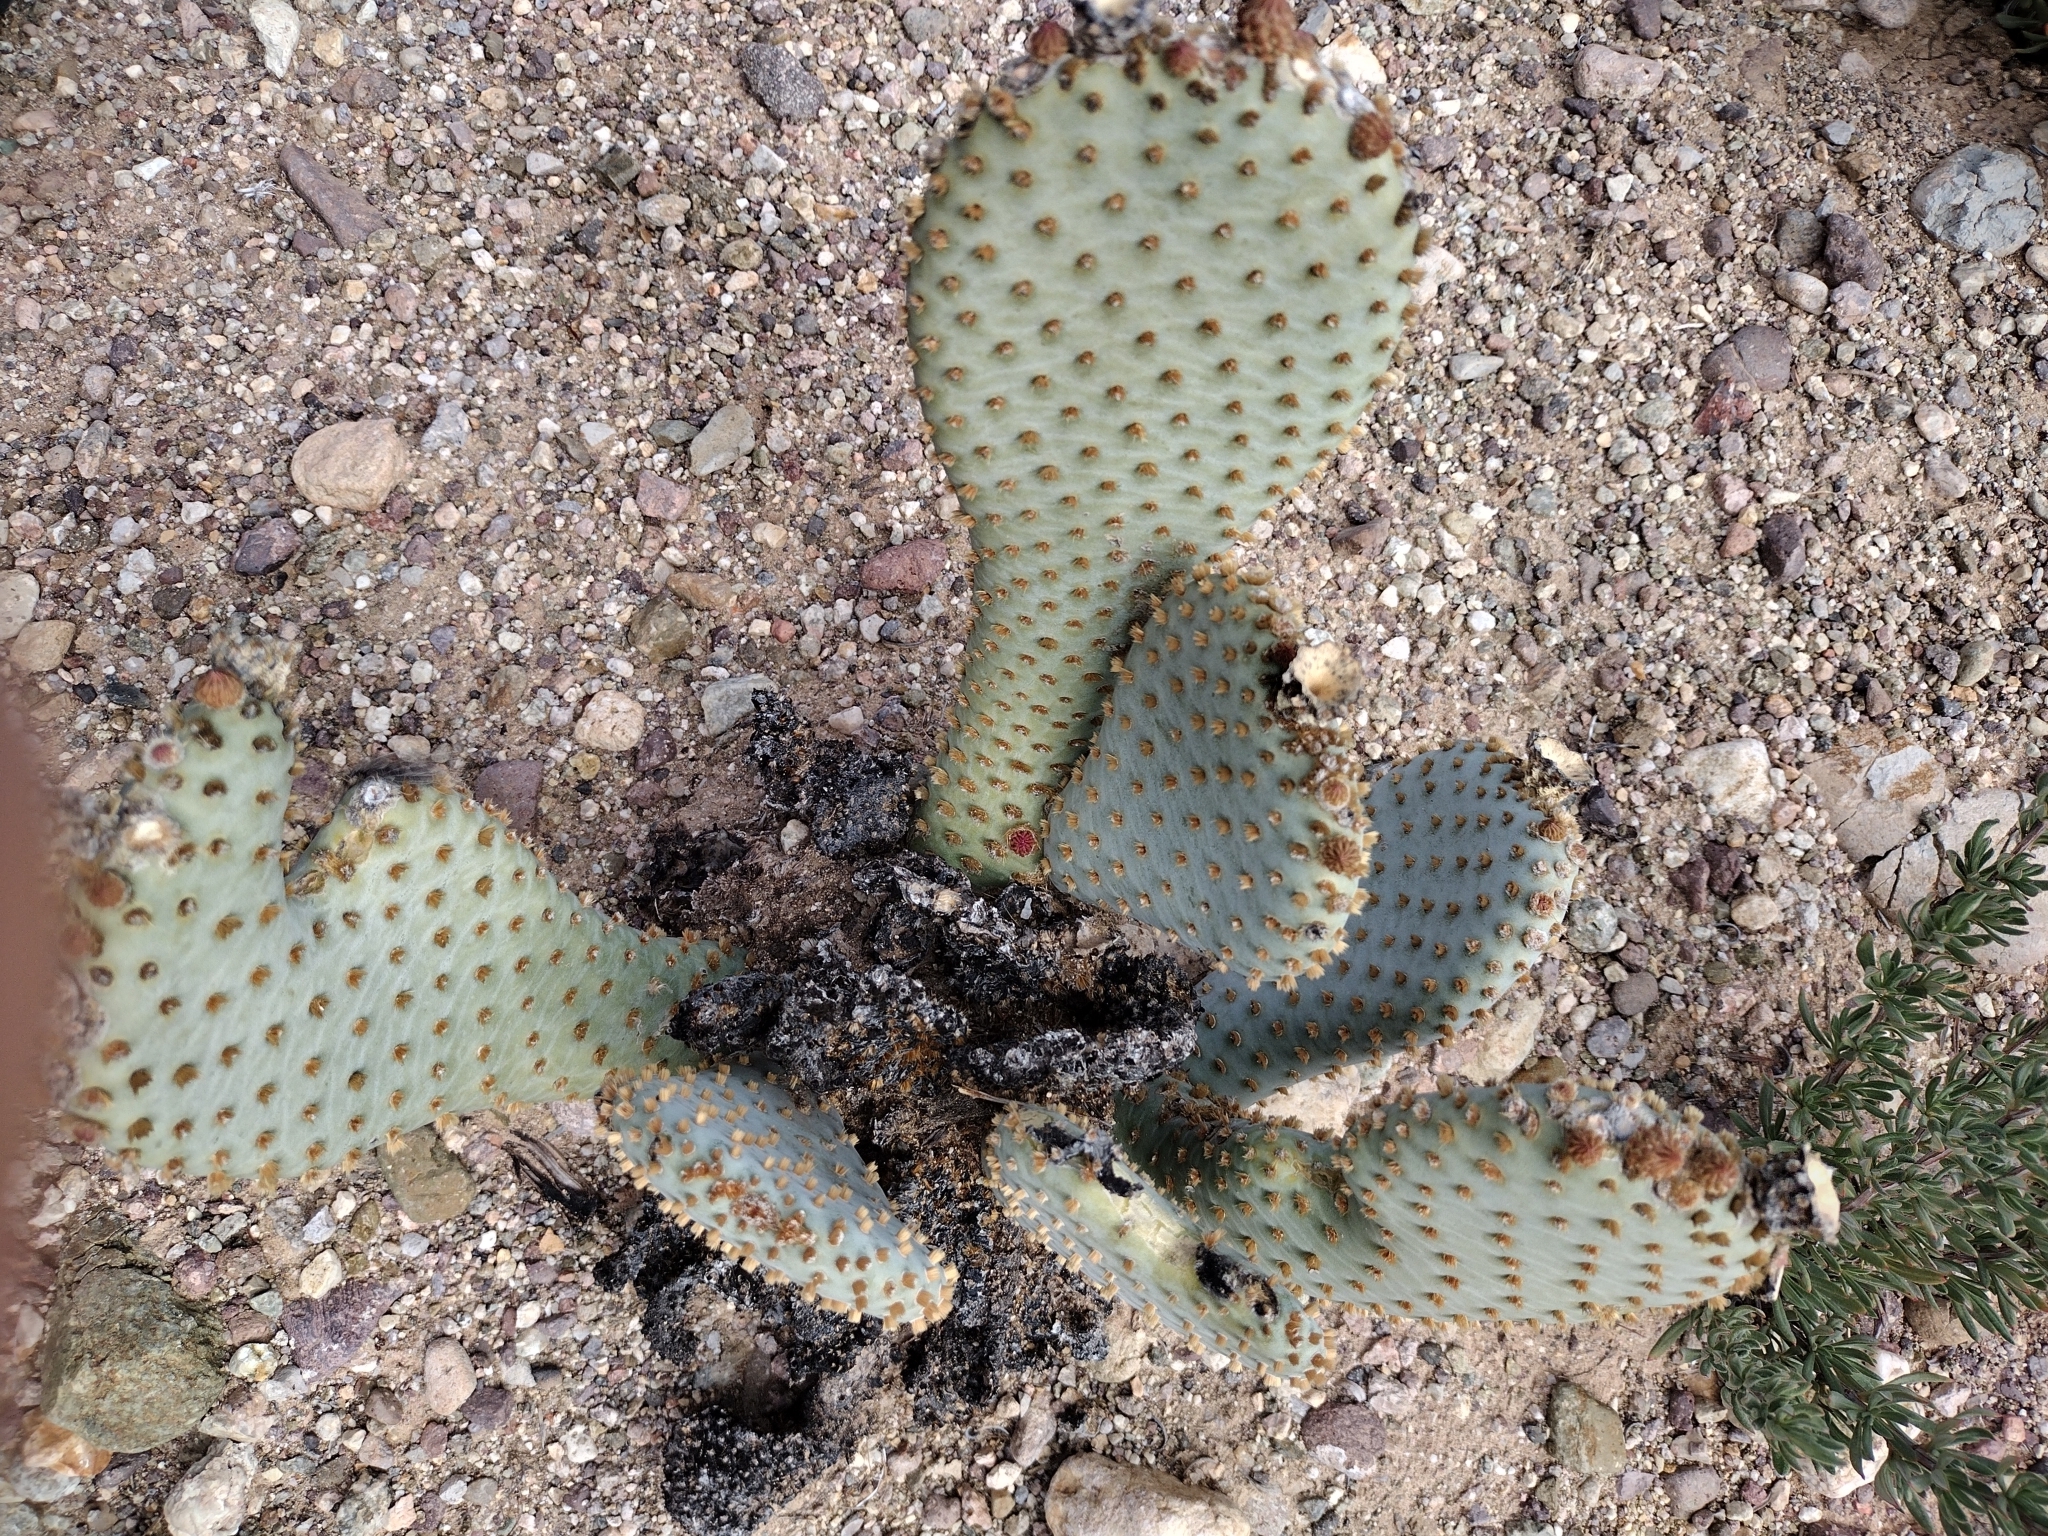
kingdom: Plantae
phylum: Tracheophyta
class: Magnoliopsida
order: Caryophyllales
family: Cactaceae
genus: Opuntia
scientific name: Opuntia basilaris
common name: Beavertail prickly-pear
